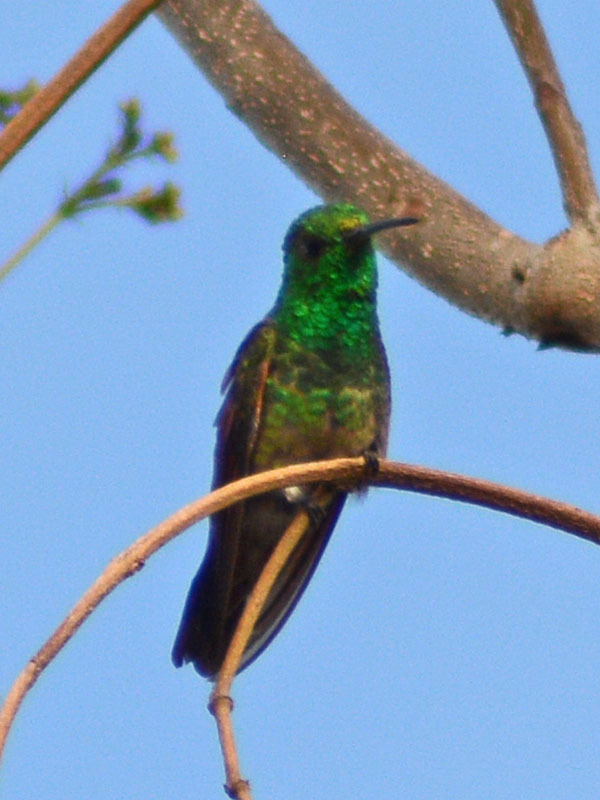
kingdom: Animalia
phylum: Chordata
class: Aves
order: Apodiformes
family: Trochilidae
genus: Saucerottia
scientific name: Saucerottia beryllina
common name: Berylline hummingbird
